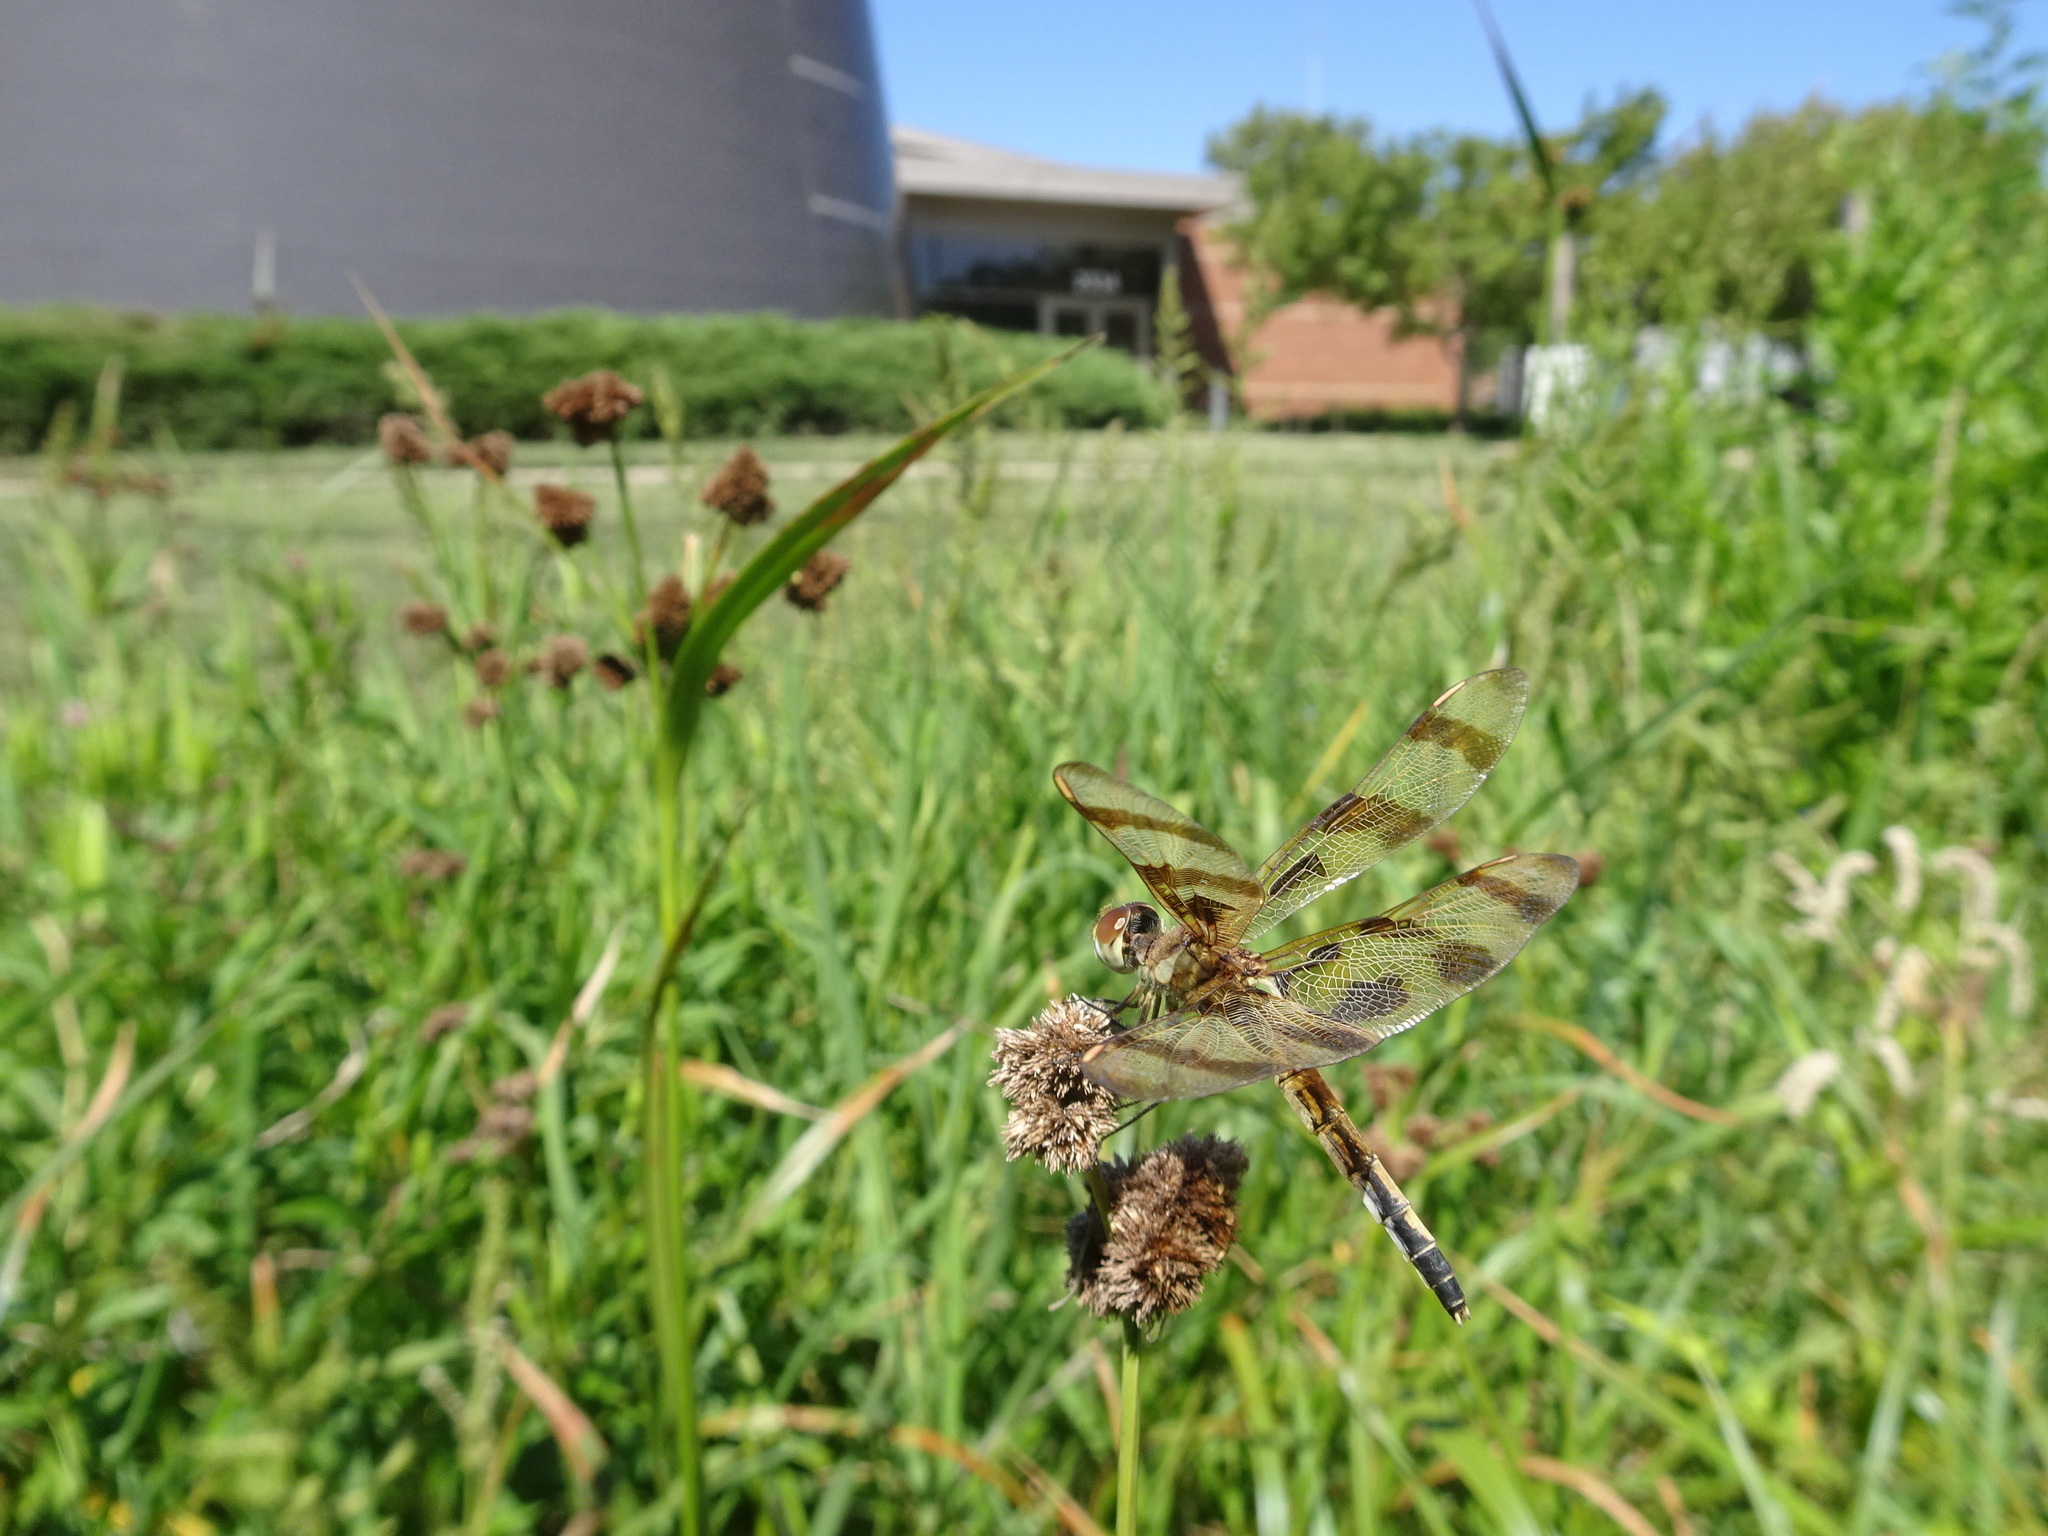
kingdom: Animalia
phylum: Arthropoda
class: Insecta
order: Odonata
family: Libellulidae
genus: Celithemis
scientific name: Celithemis eponina
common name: Halloween pennant
